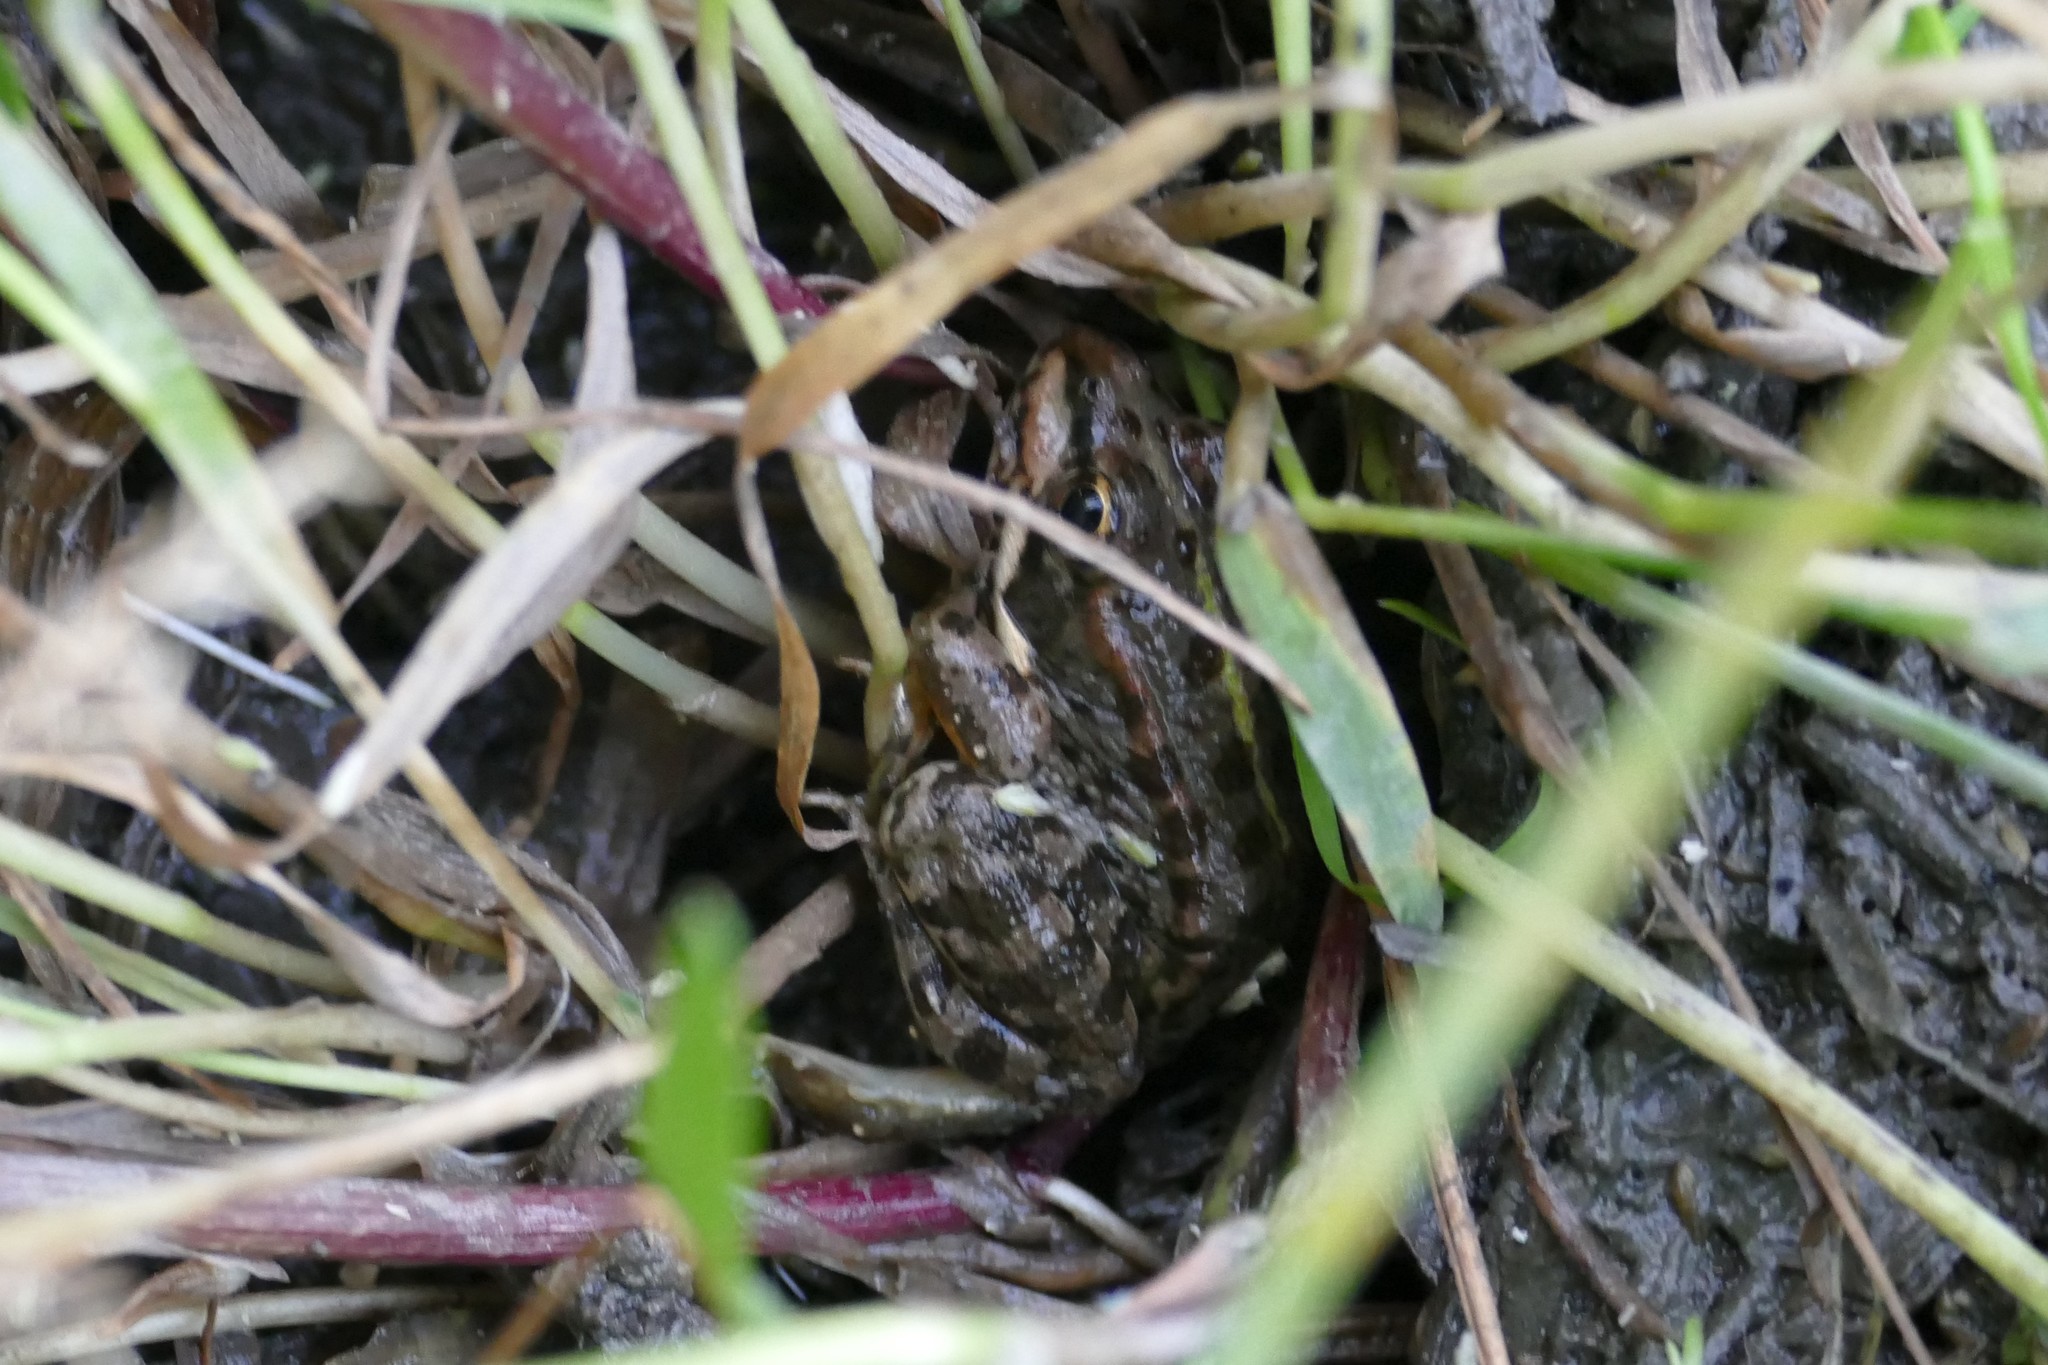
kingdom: Animalia
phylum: Chordata
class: Amphibia
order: Anura
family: Ranidae
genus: Pelophylax
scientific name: Pelophylax perezi
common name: Perez's frog
